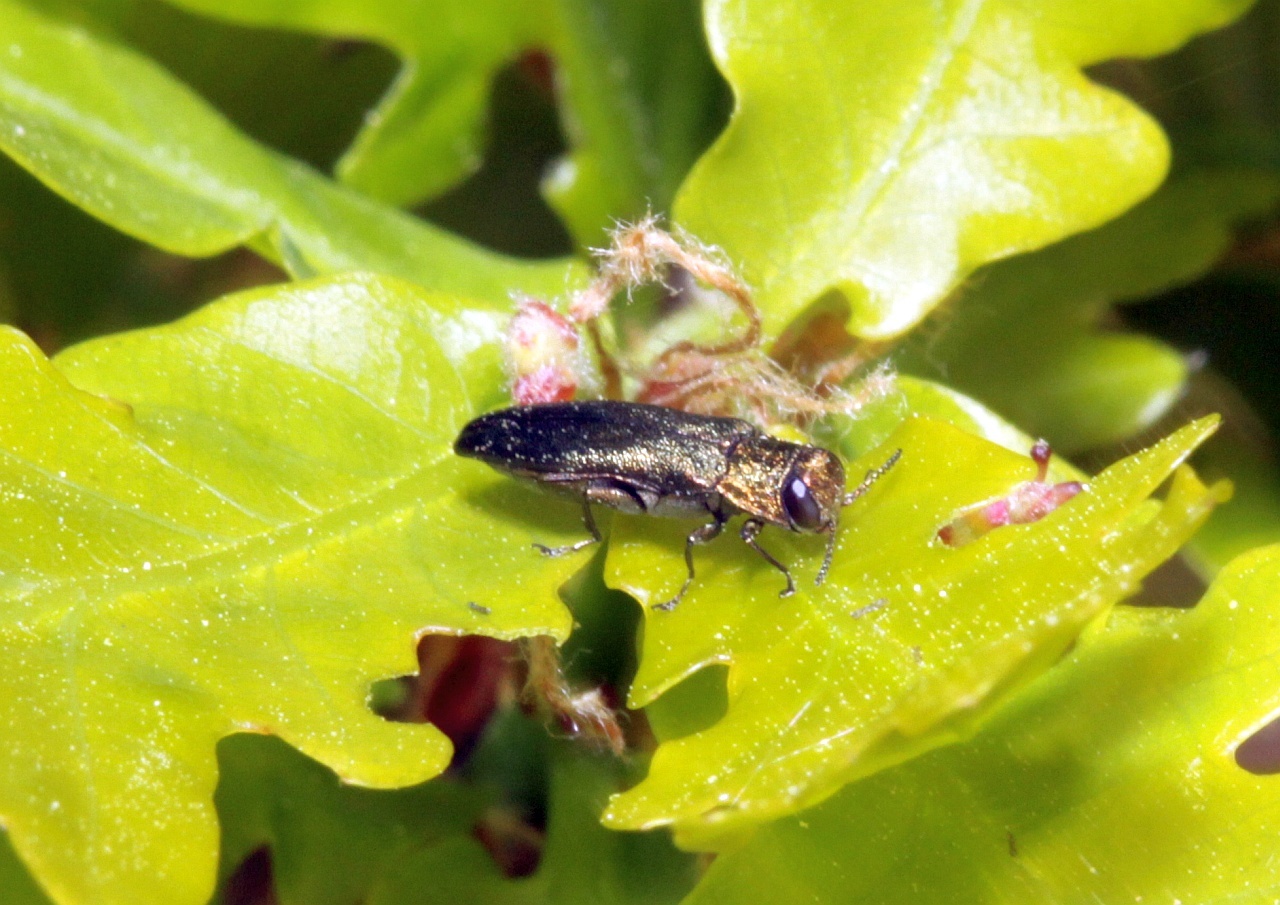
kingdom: Animalia
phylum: Arthropoda
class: Insecta
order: Coleoptera
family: Buprestidae
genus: Agrilus
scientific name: Agrilus angustulus
